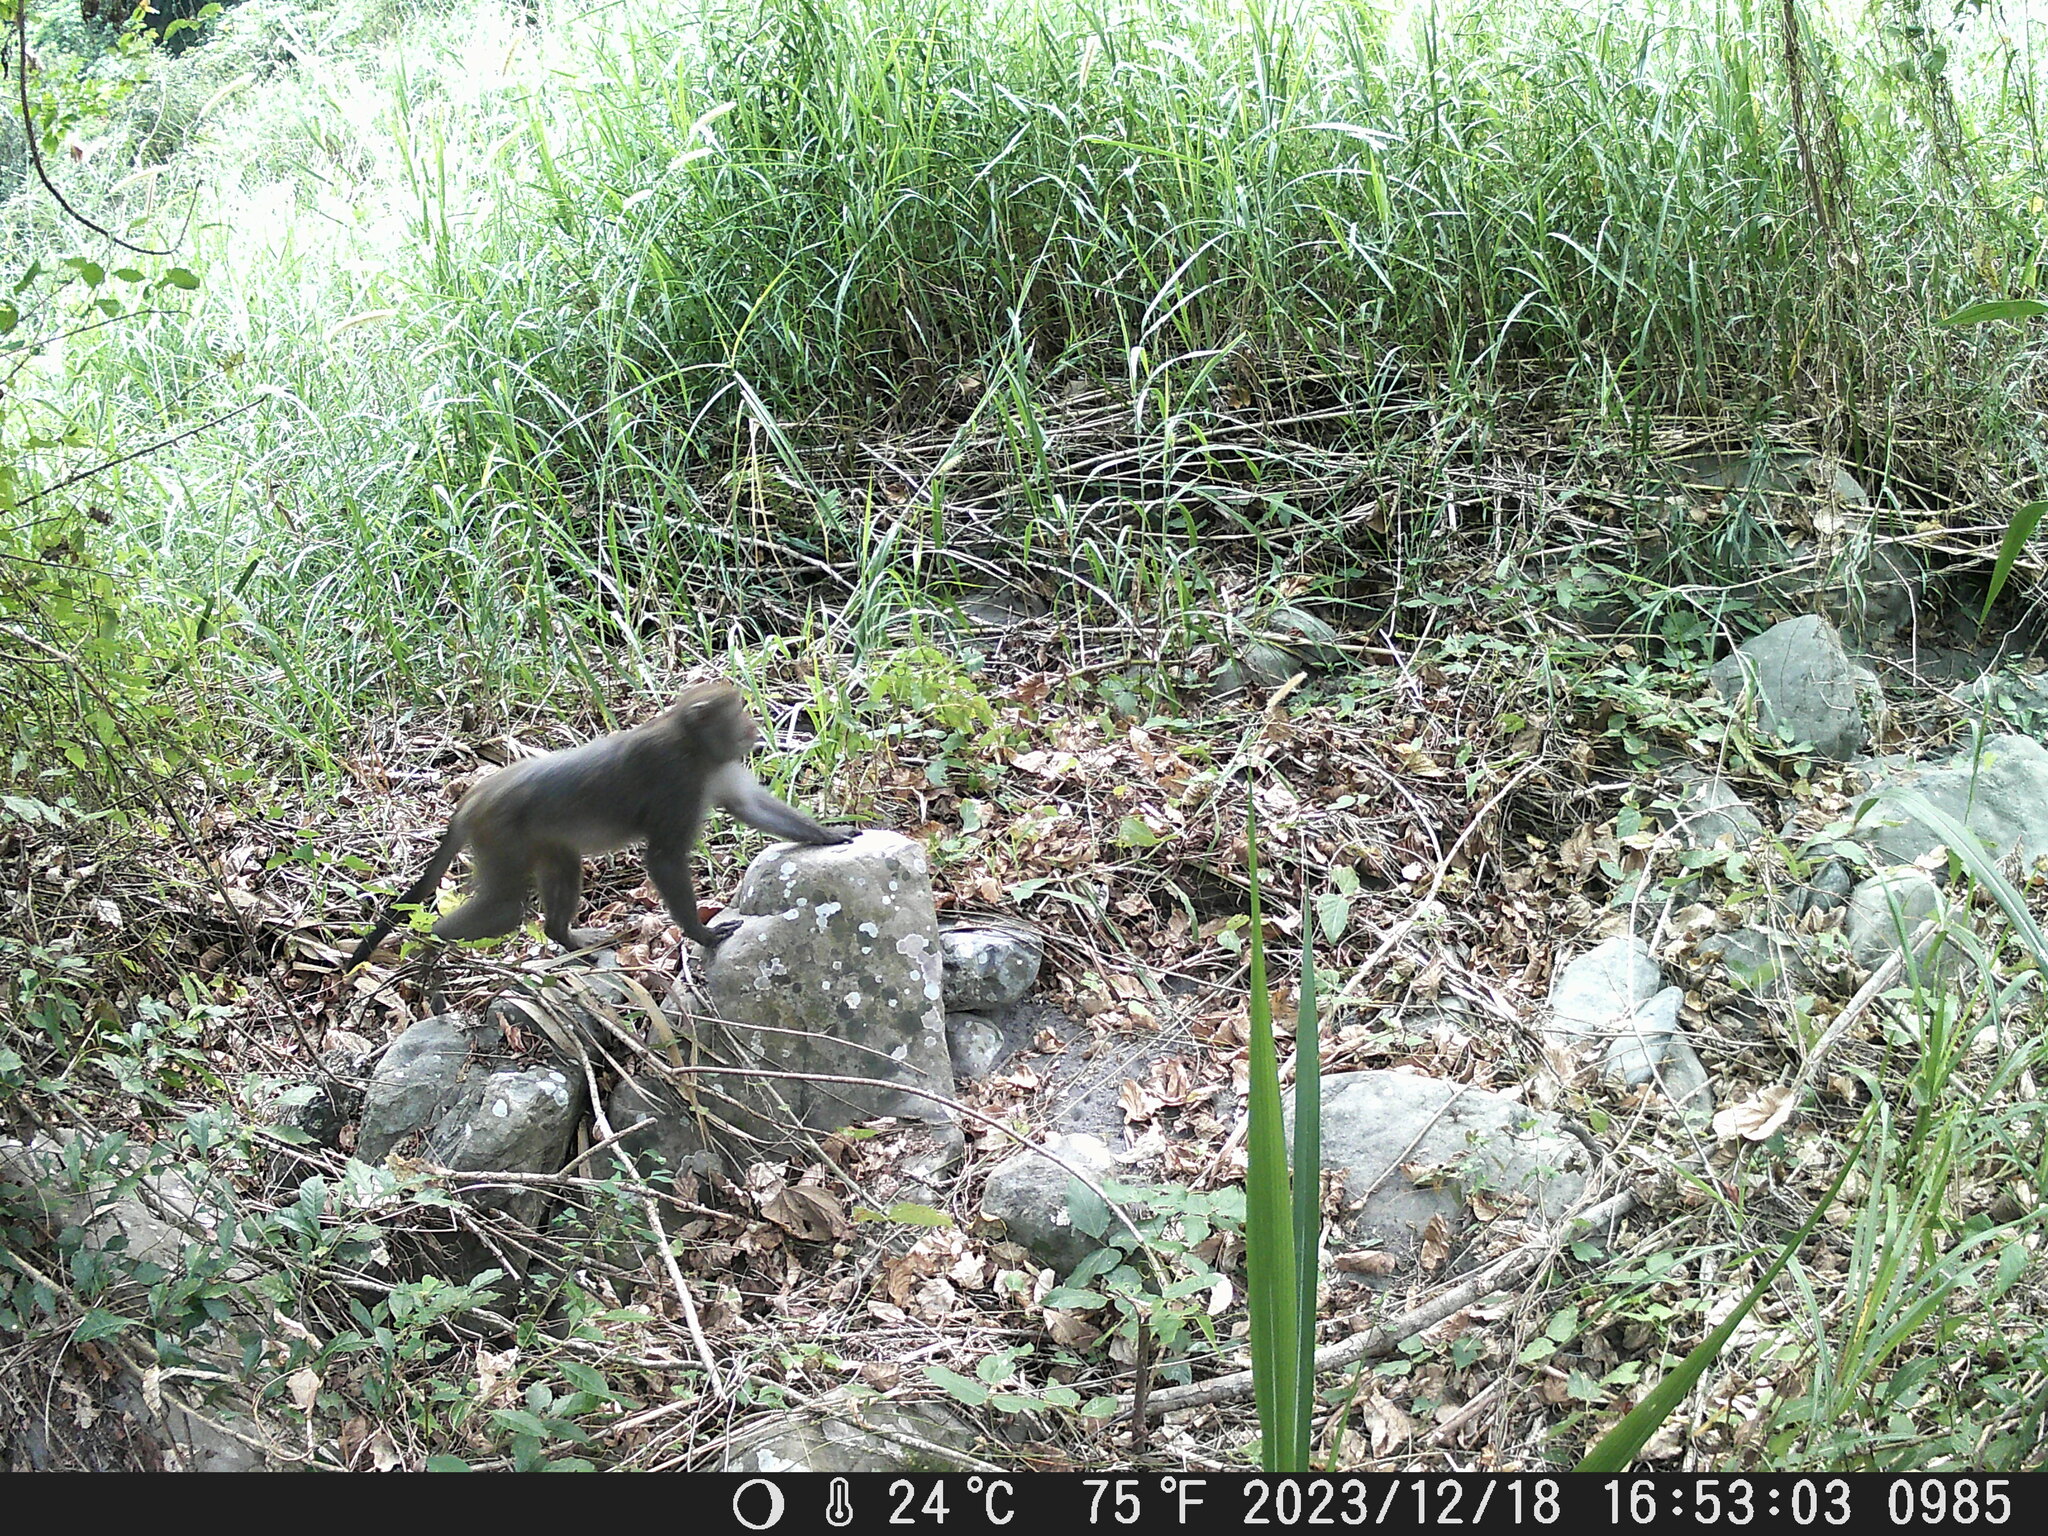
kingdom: Animalia
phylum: Chordata
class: Mammalia
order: Primates
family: Cercopithecidae
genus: Macaca
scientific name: Macaca cyclopis
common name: Formosan rock macaque
